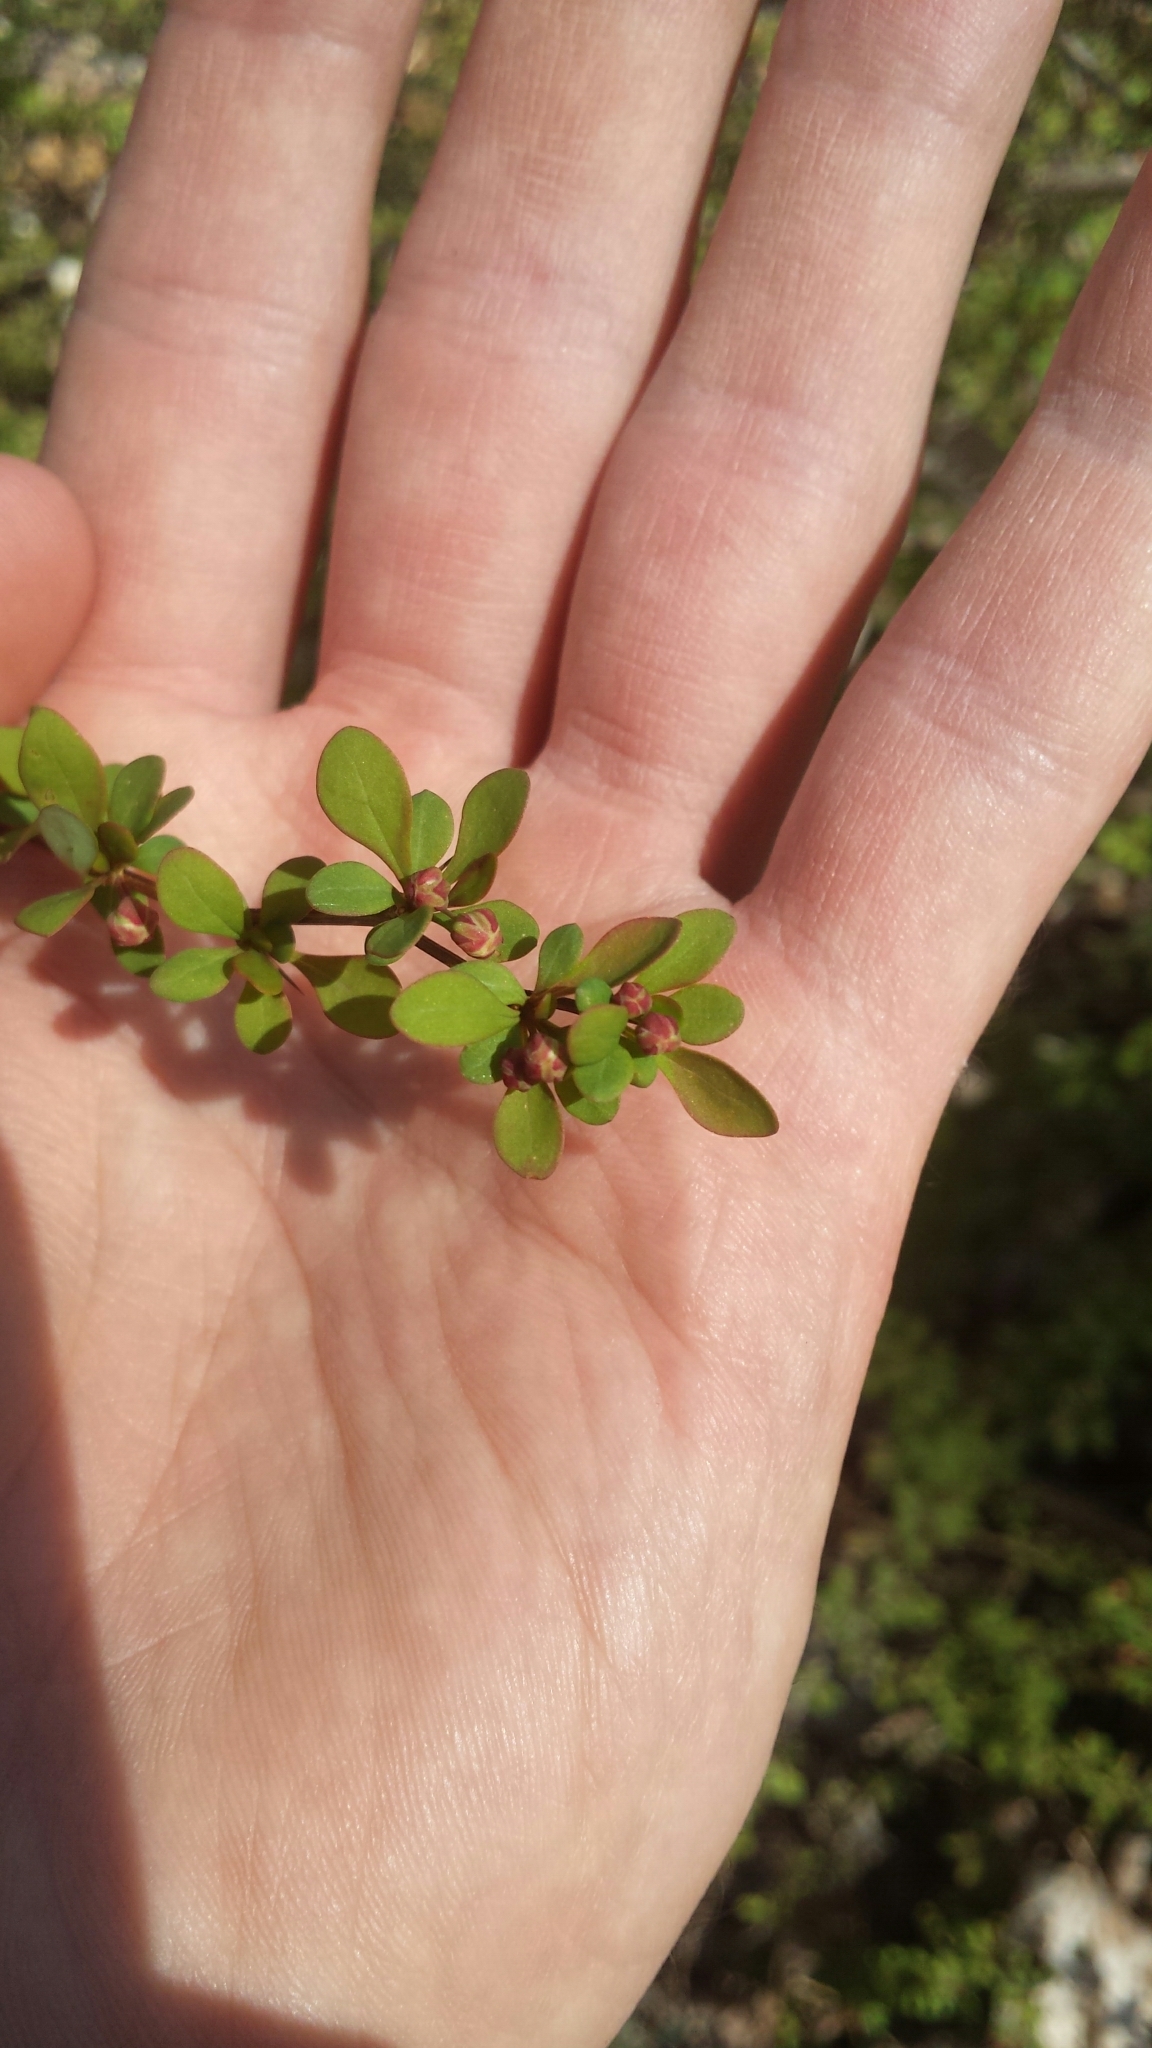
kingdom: Plantae
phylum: Tracheophyta
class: Magnoliopsida
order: Ranunculales
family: Berberidaceae
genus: Berberis
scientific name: Berberis thunbergii
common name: Japanese barberry
